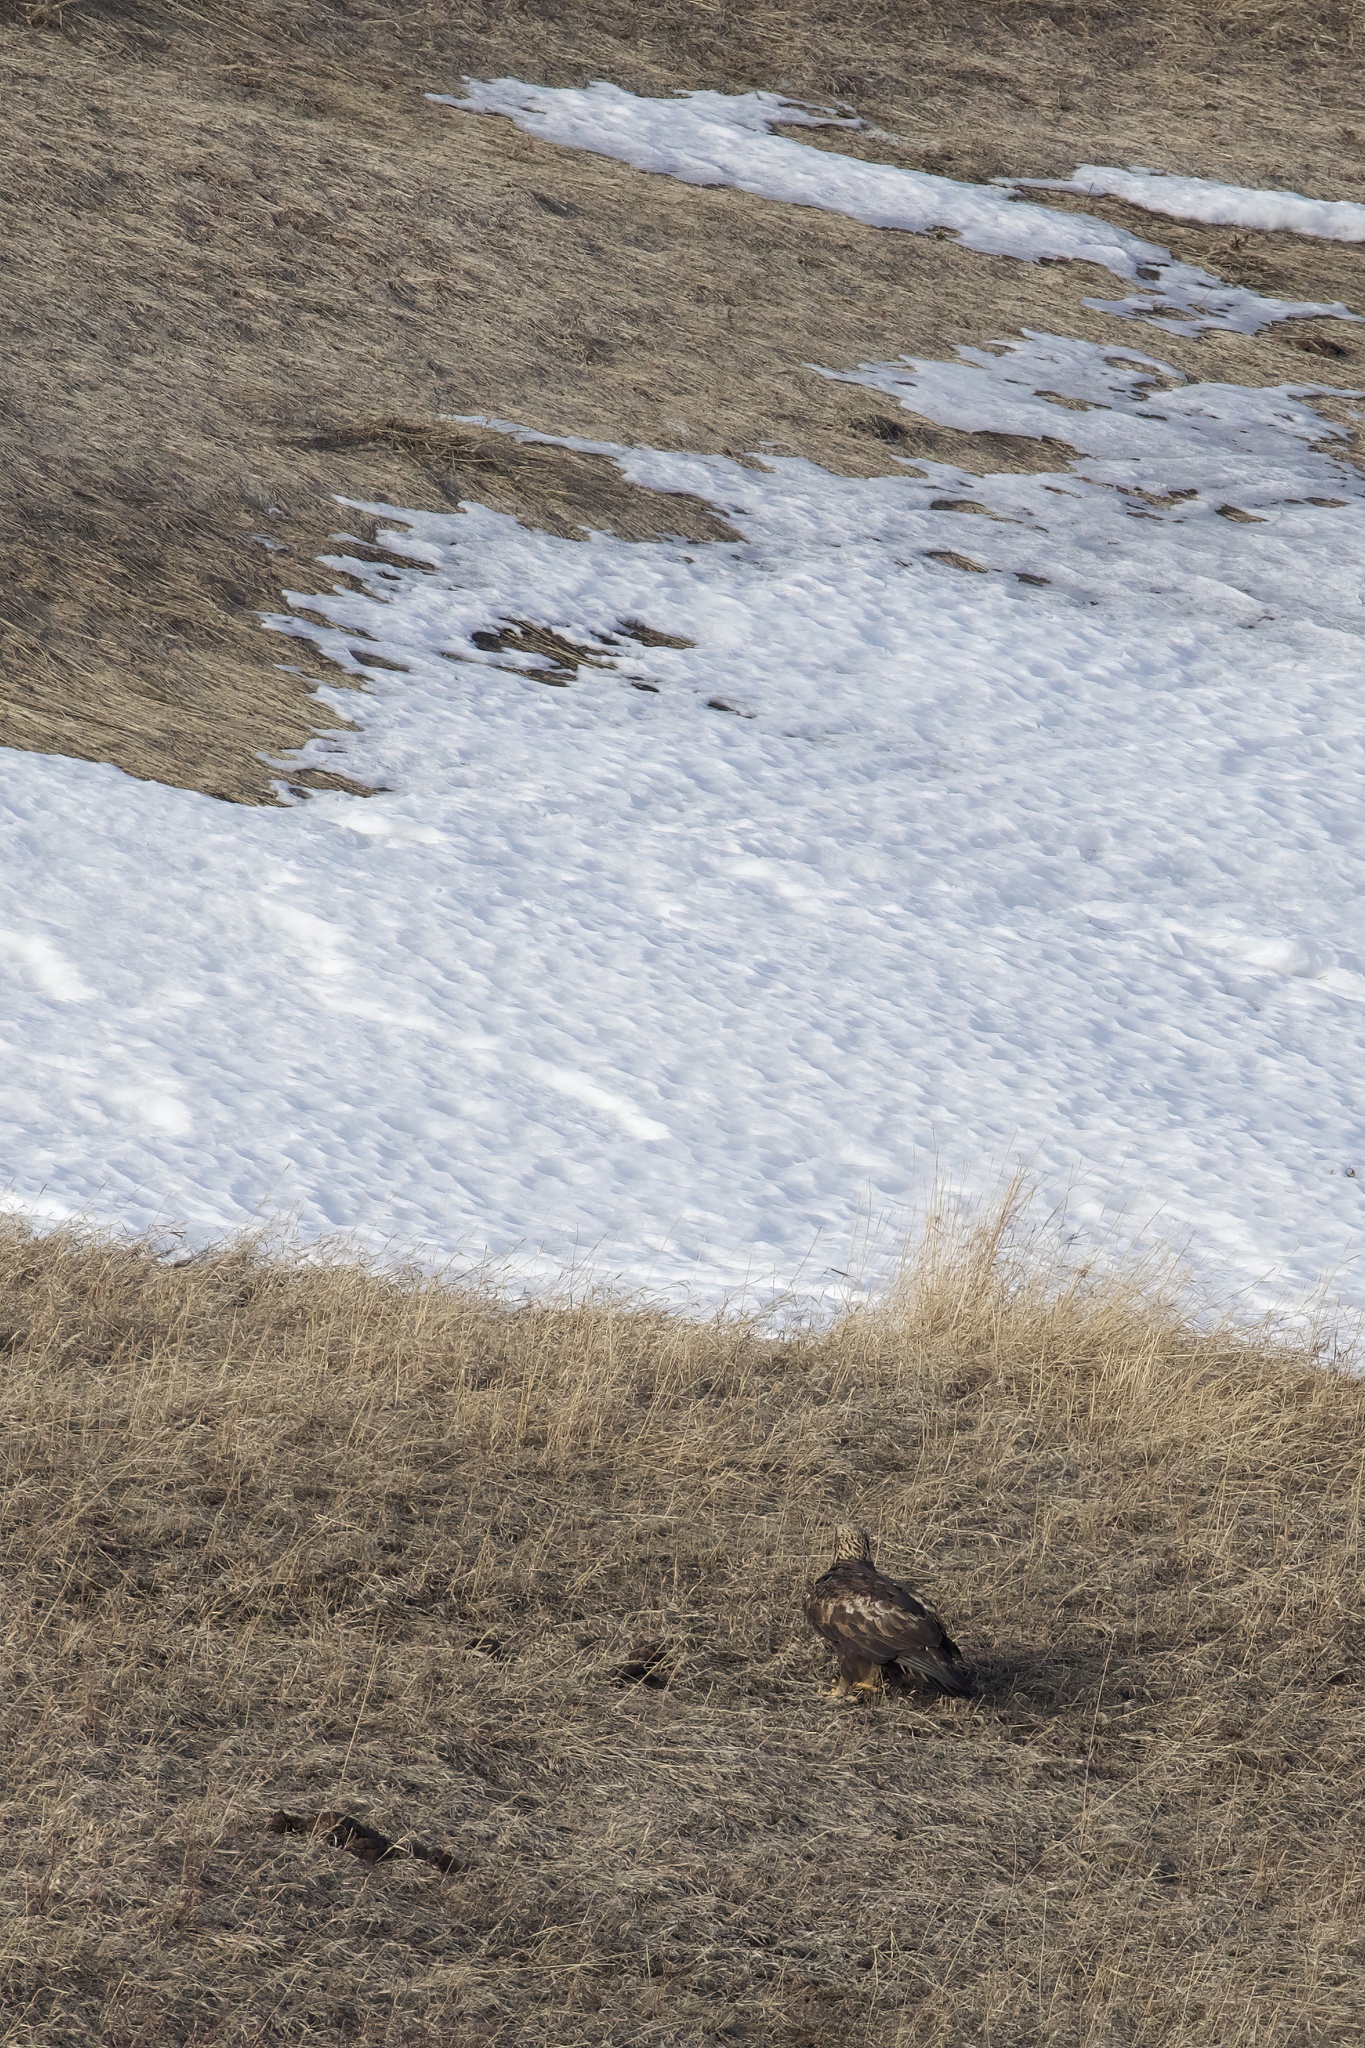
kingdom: Animalia
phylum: Chordata
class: Aves
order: Accipitriformes
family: Accipitridae
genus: Aquila
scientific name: Aquila chrysaetos
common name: Golden eagle
